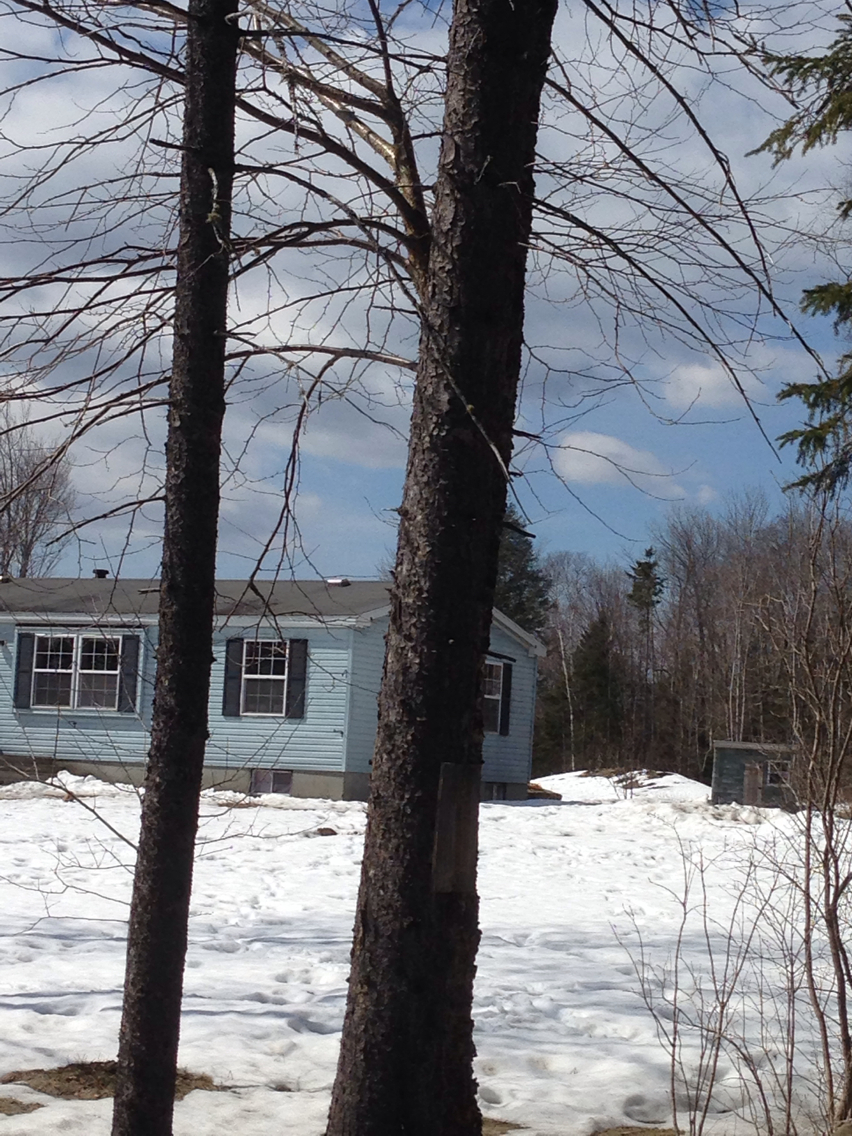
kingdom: Plantae
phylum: Tracheophyta
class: Pinopsida
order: Pinales
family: Pinaceae
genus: Picea
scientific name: Picea rubens
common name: Red spruce
